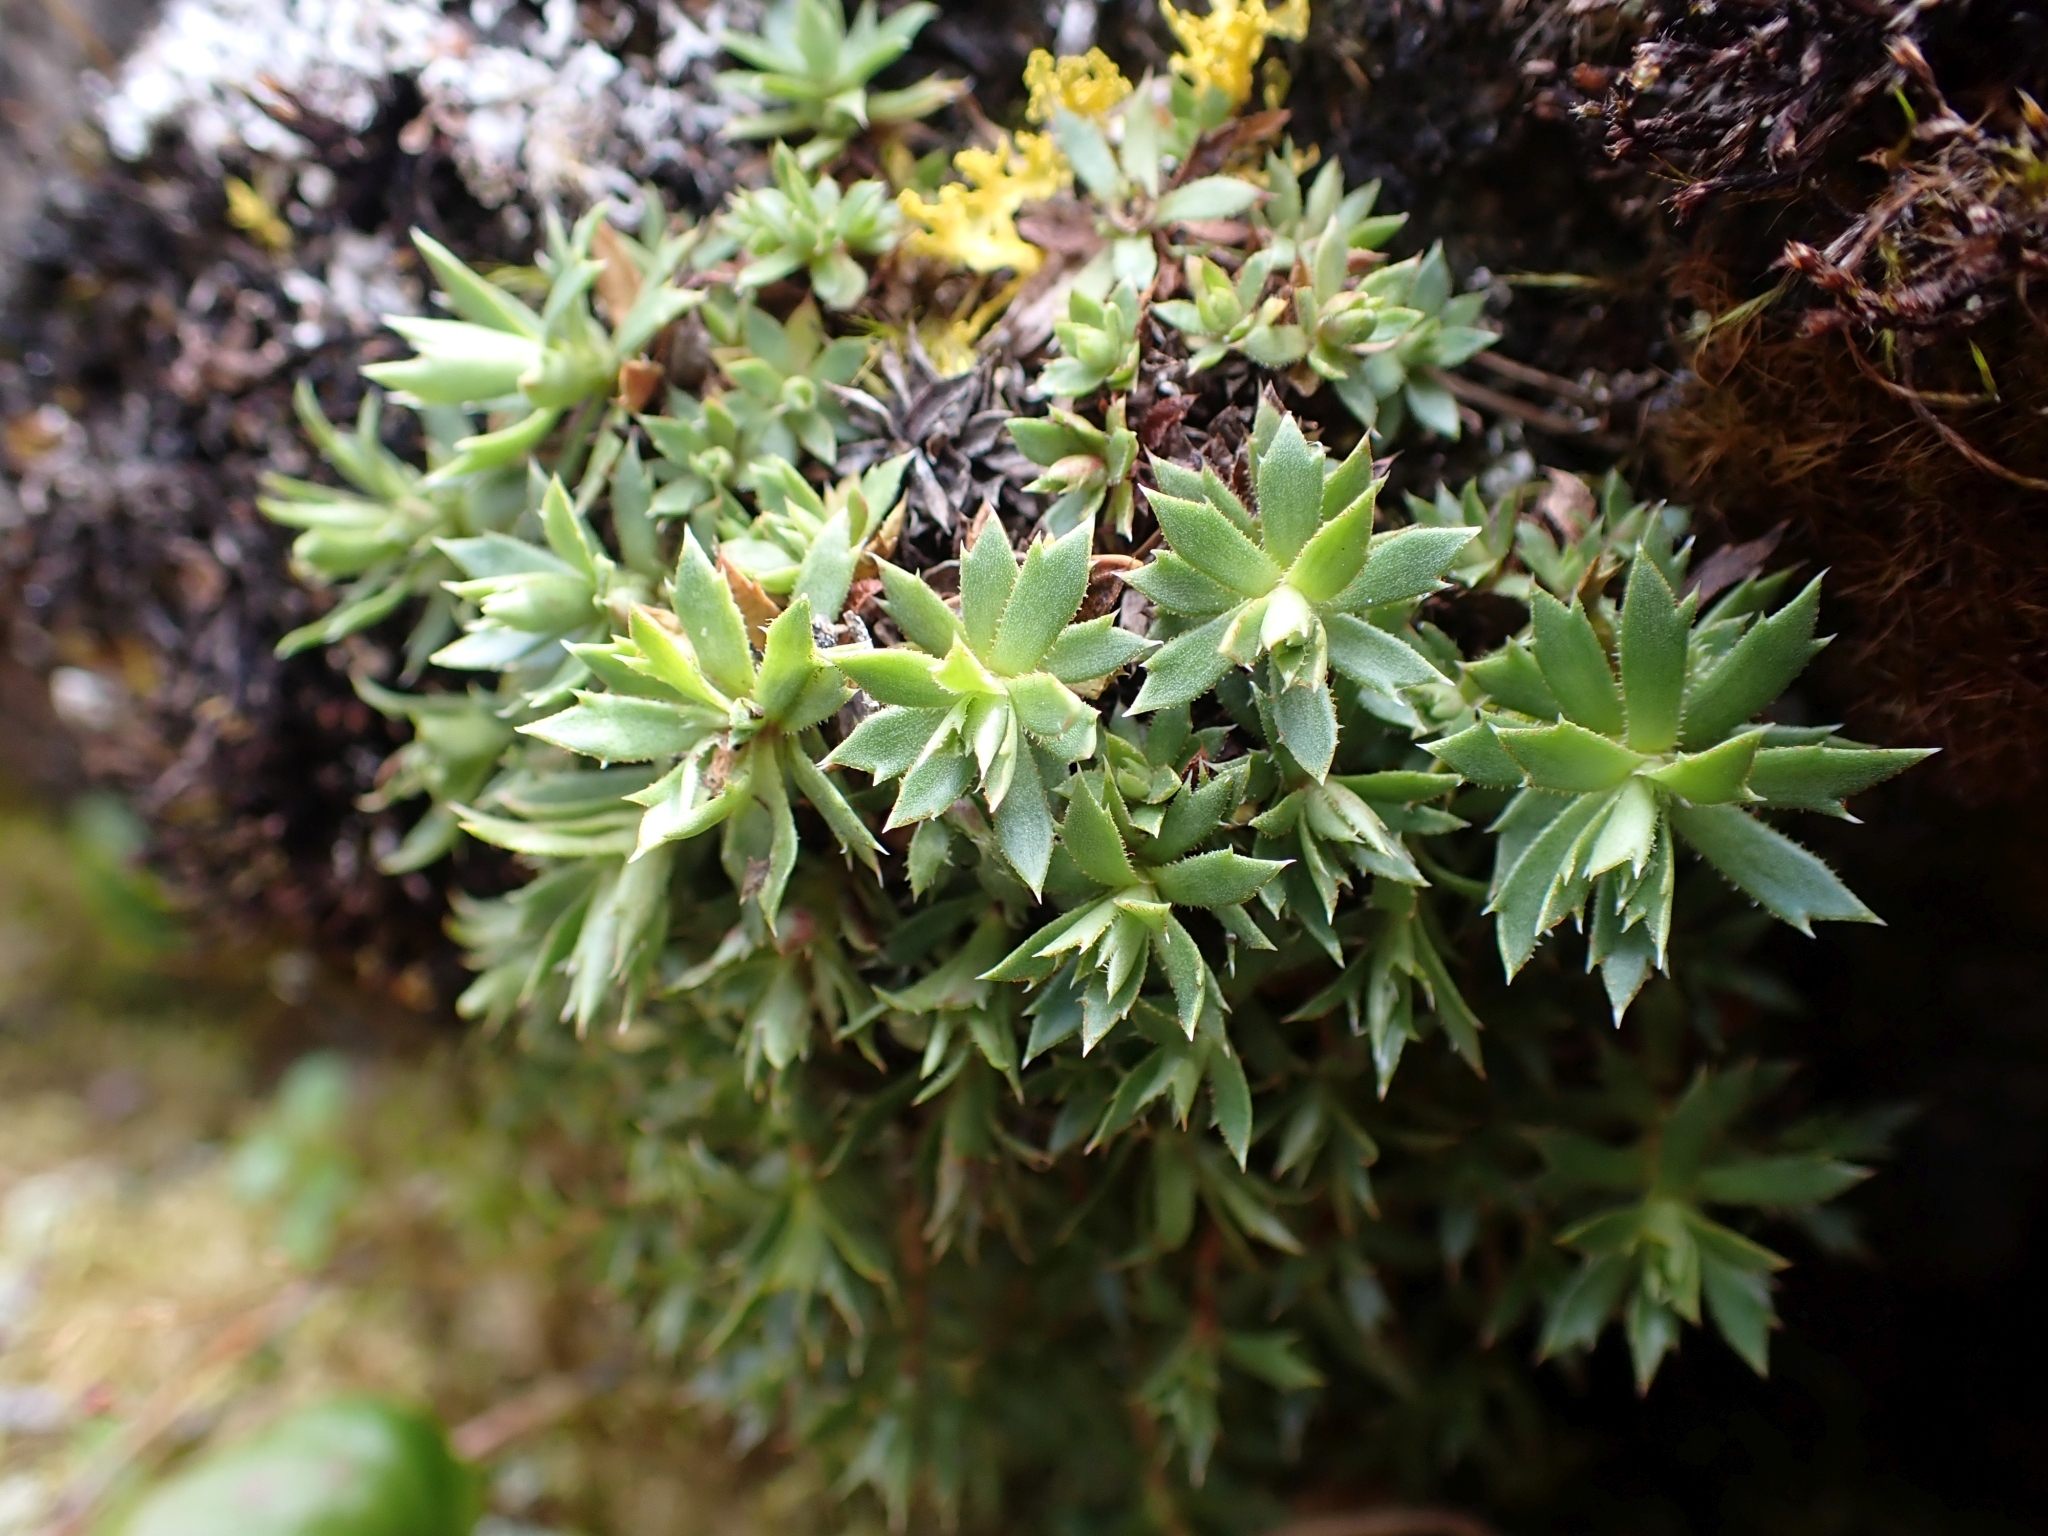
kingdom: Plantae
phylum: Tracheophyta
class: Magnoliopsida
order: Saxifragales
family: Saxifragaceae
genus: Saxifraga
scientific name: Saxifraga tricuspidata
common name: Prickly saxifrage
